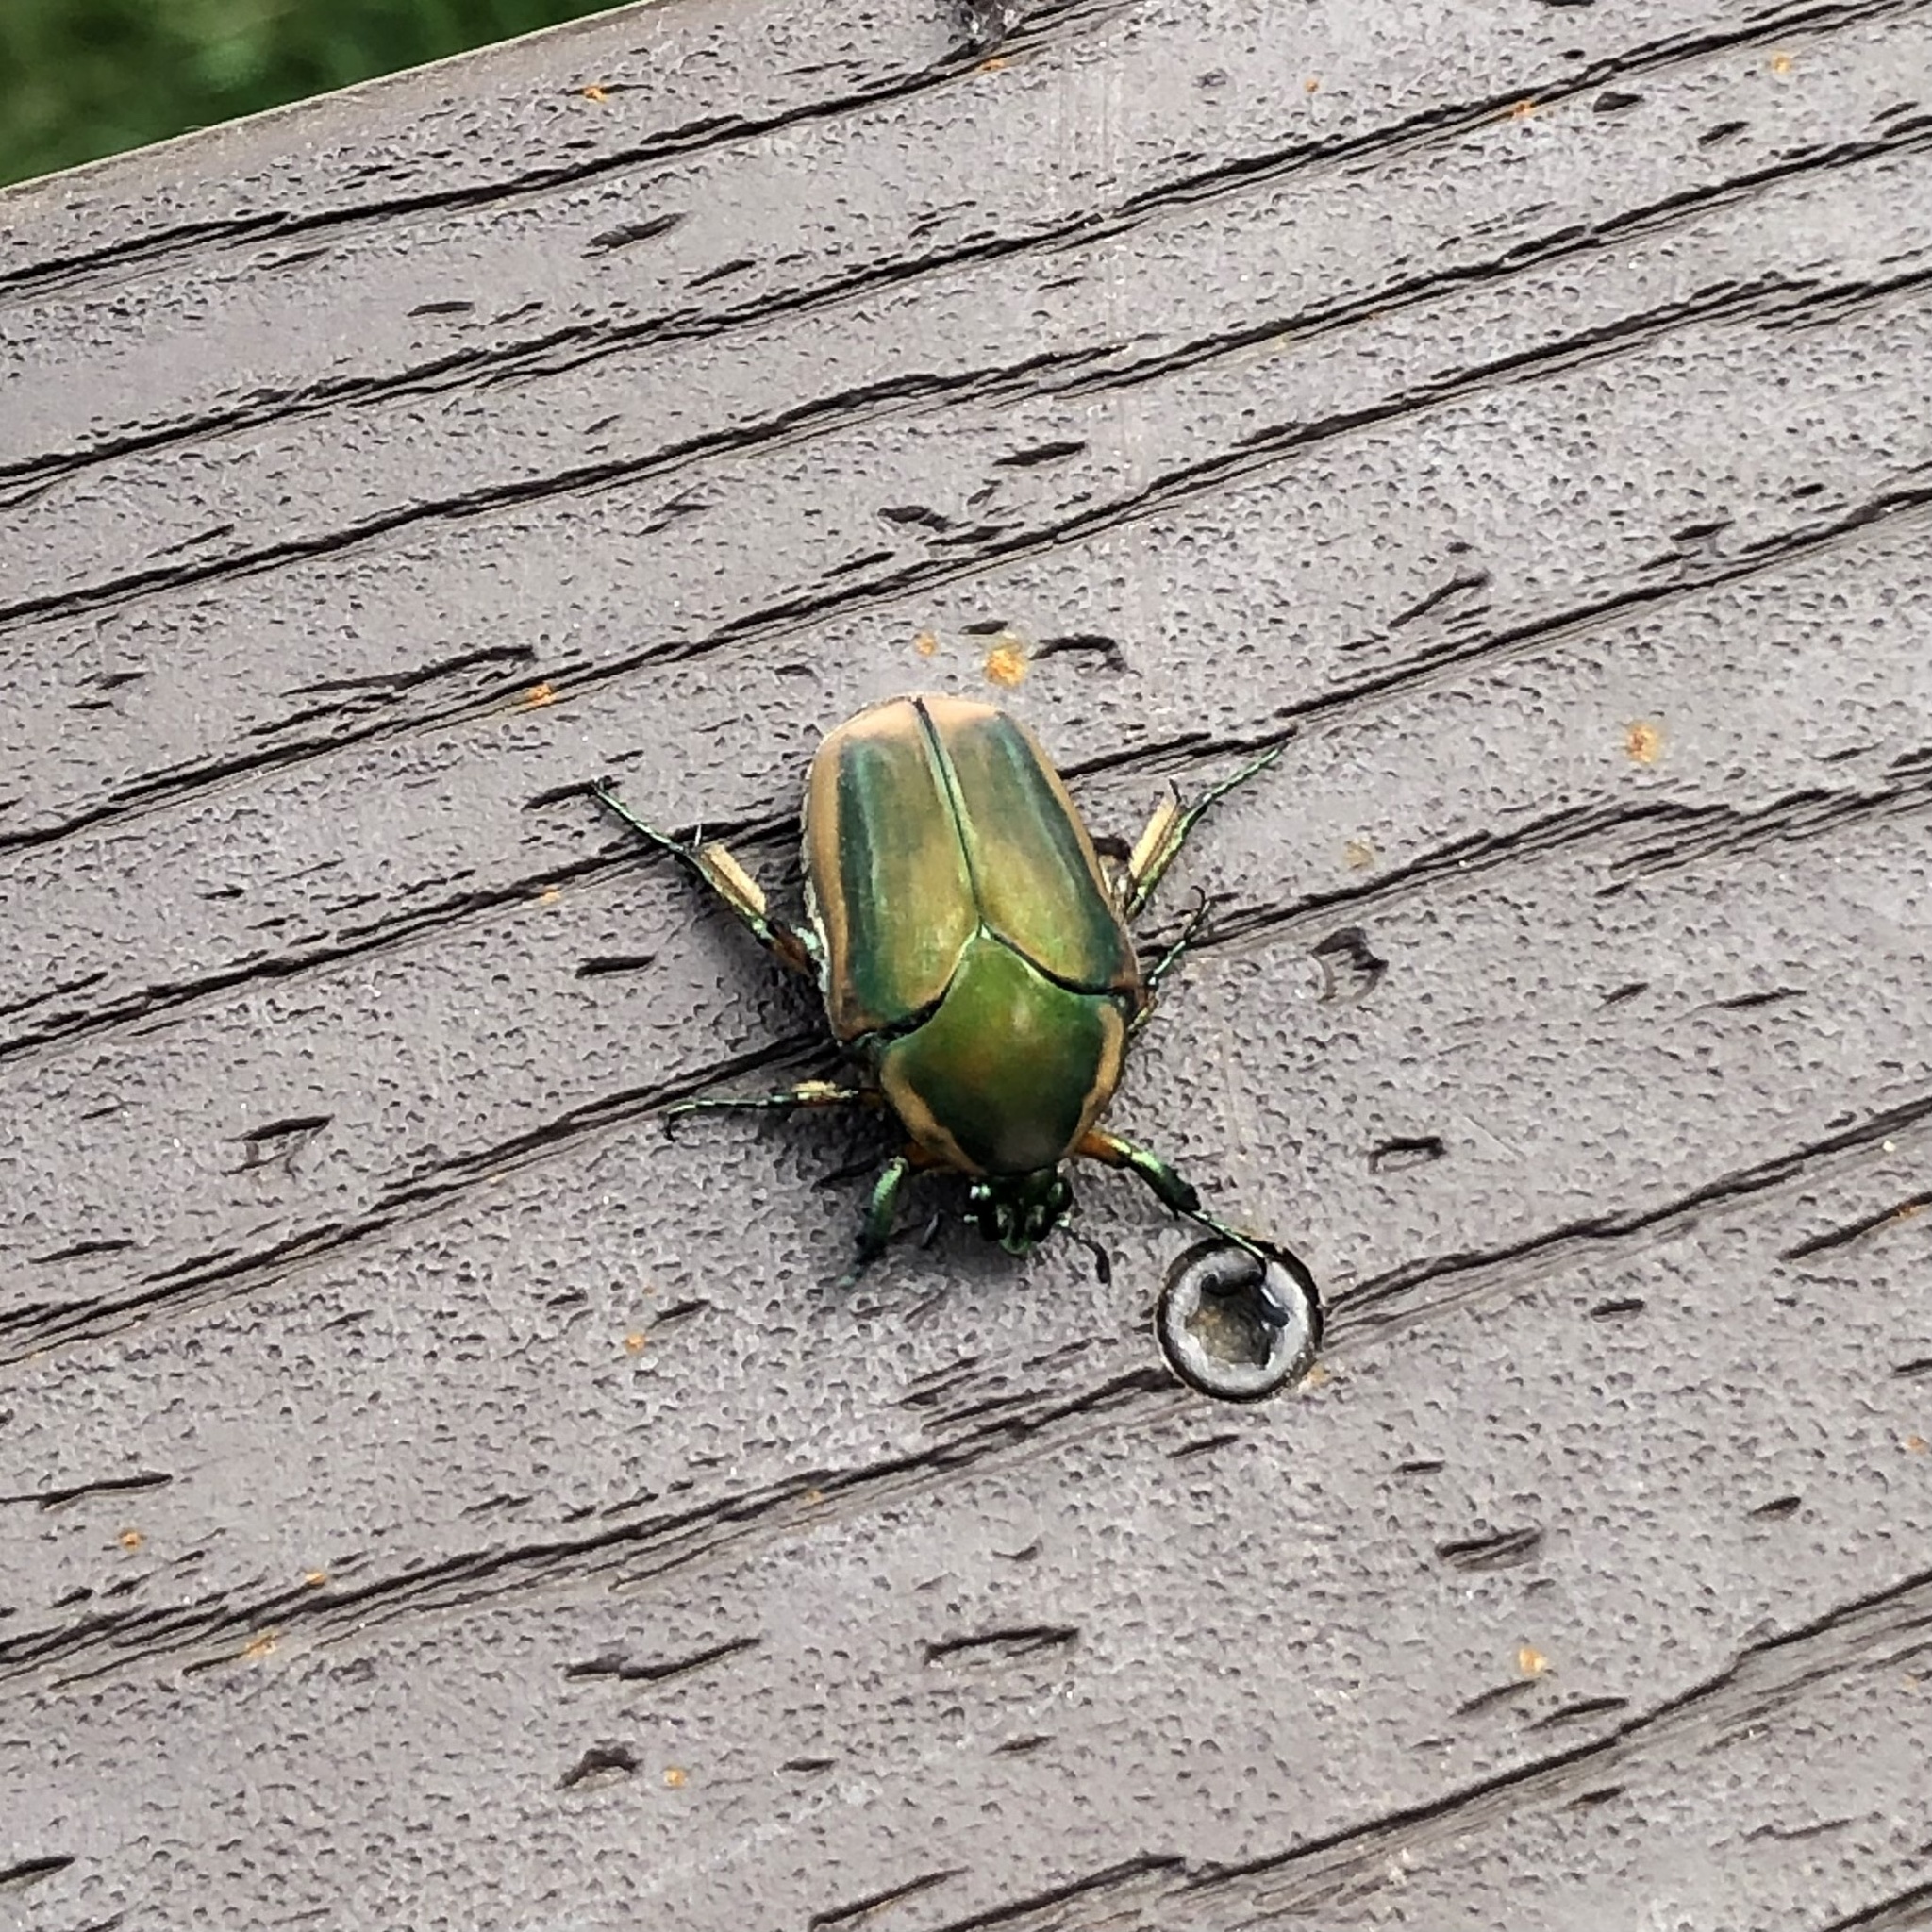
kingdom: Animalia
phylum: Arthropoda
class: Insecta
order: Coleoptera
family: Scarabaeidae
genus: Cotinis
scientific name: Cotinis nitida
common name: Common green june beetle
